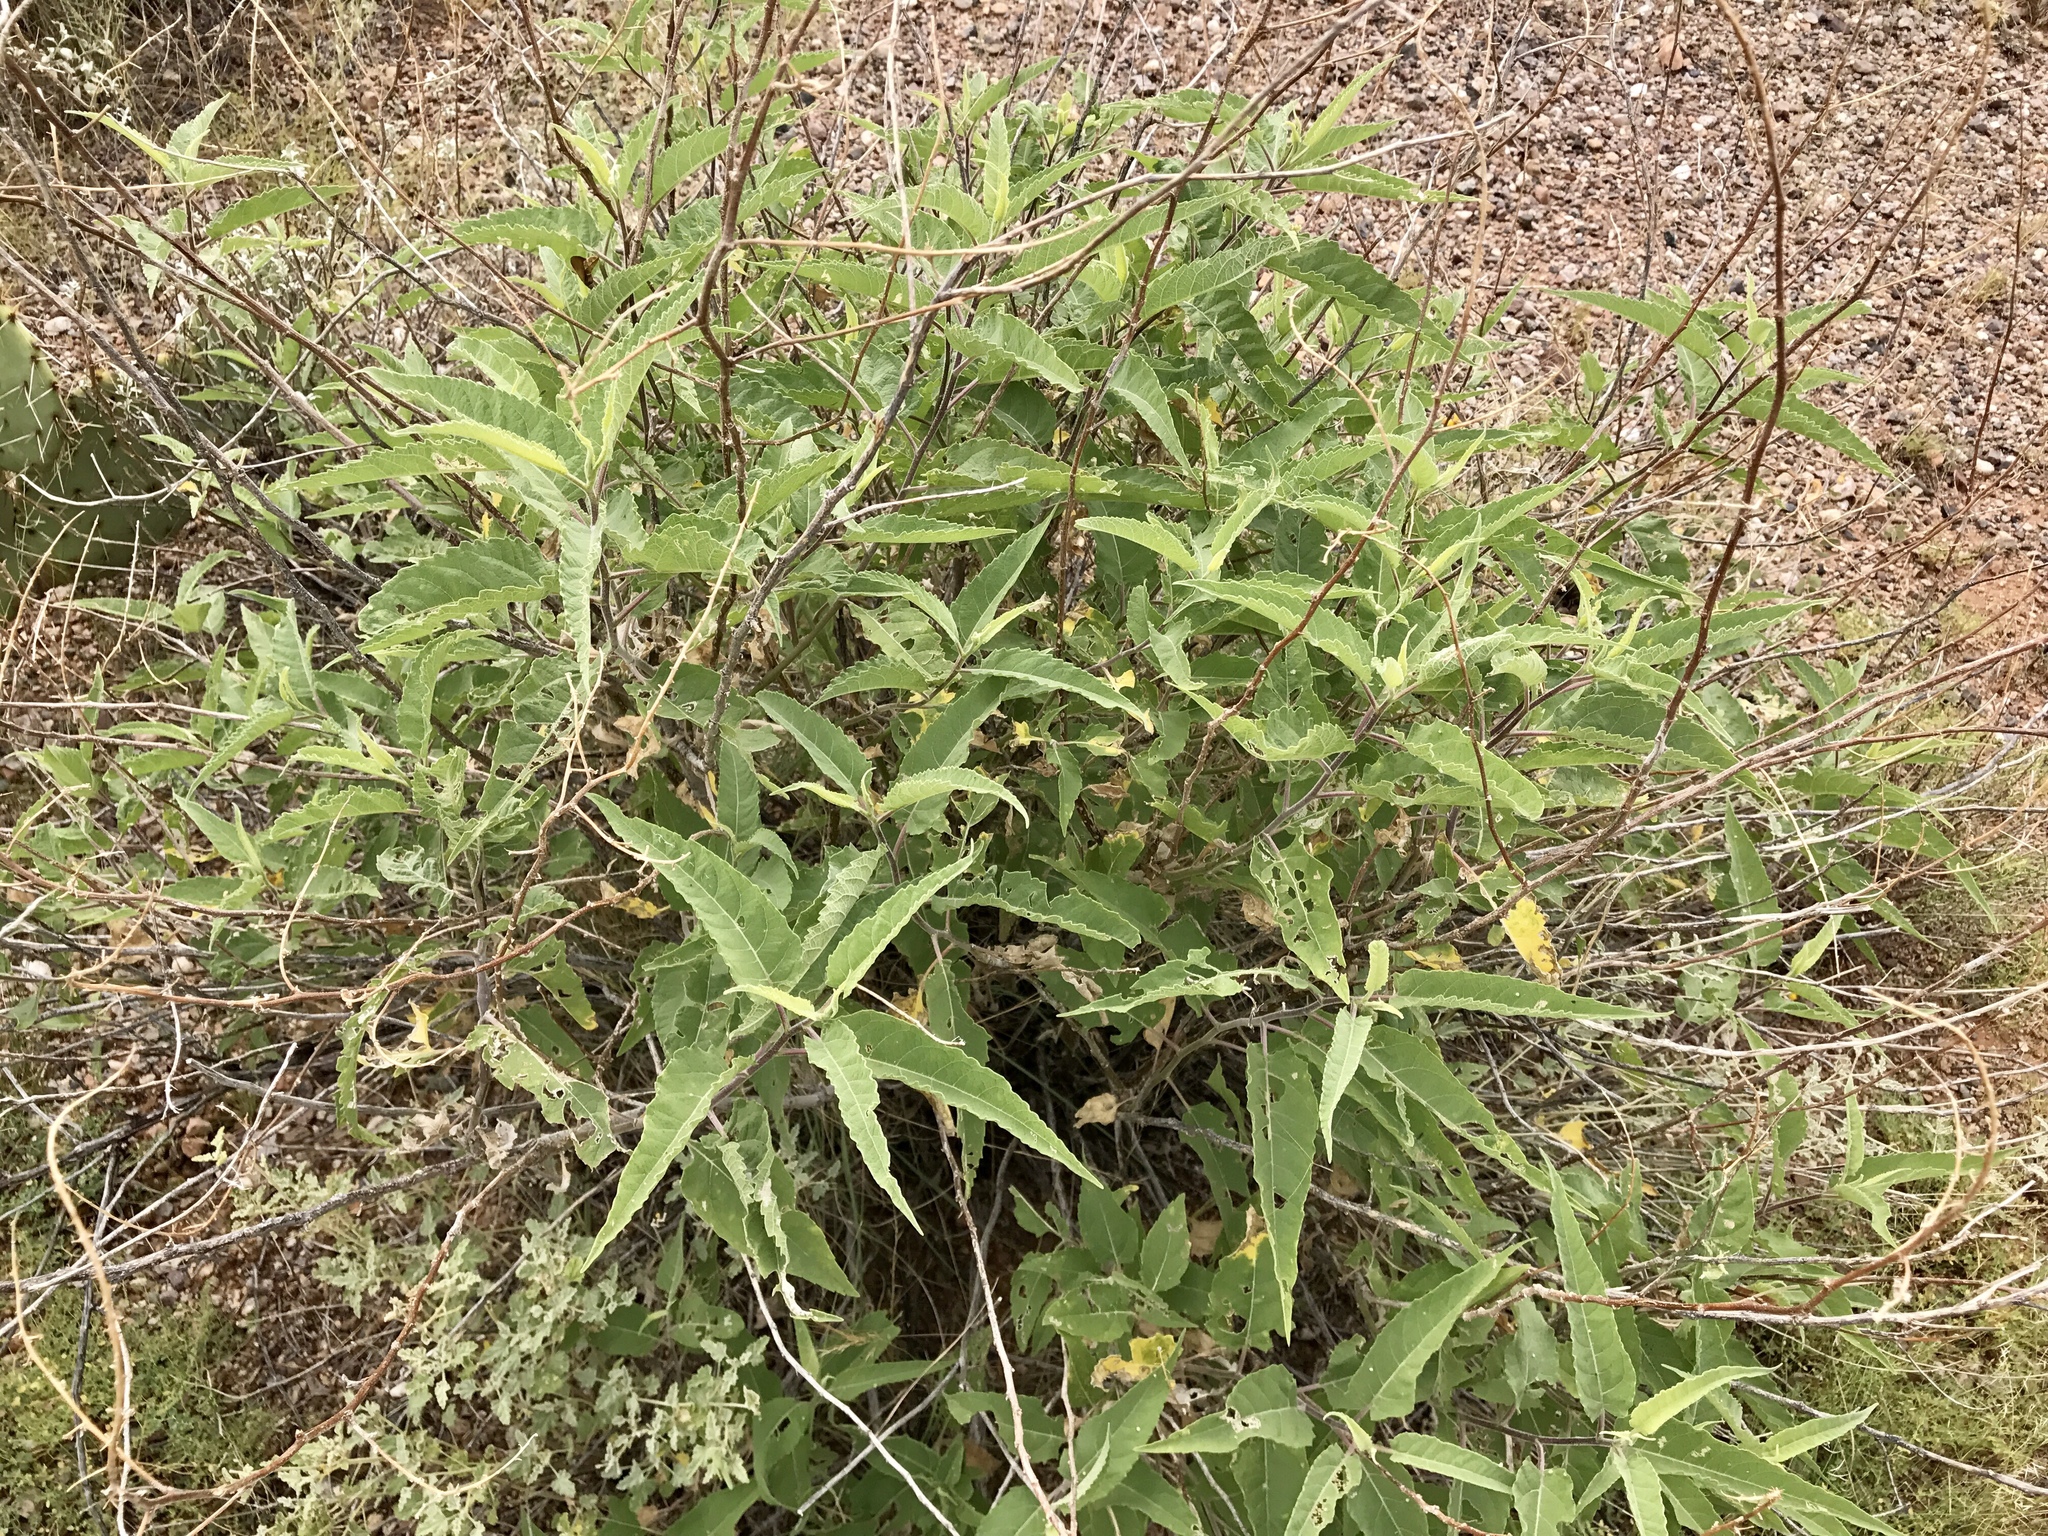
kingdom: Plantae
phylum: Tracheophyta
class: Magnoliopsida
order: Asterales
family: Asteraceae
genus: Ambrosia
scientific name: Ambrosia ambrosioides
